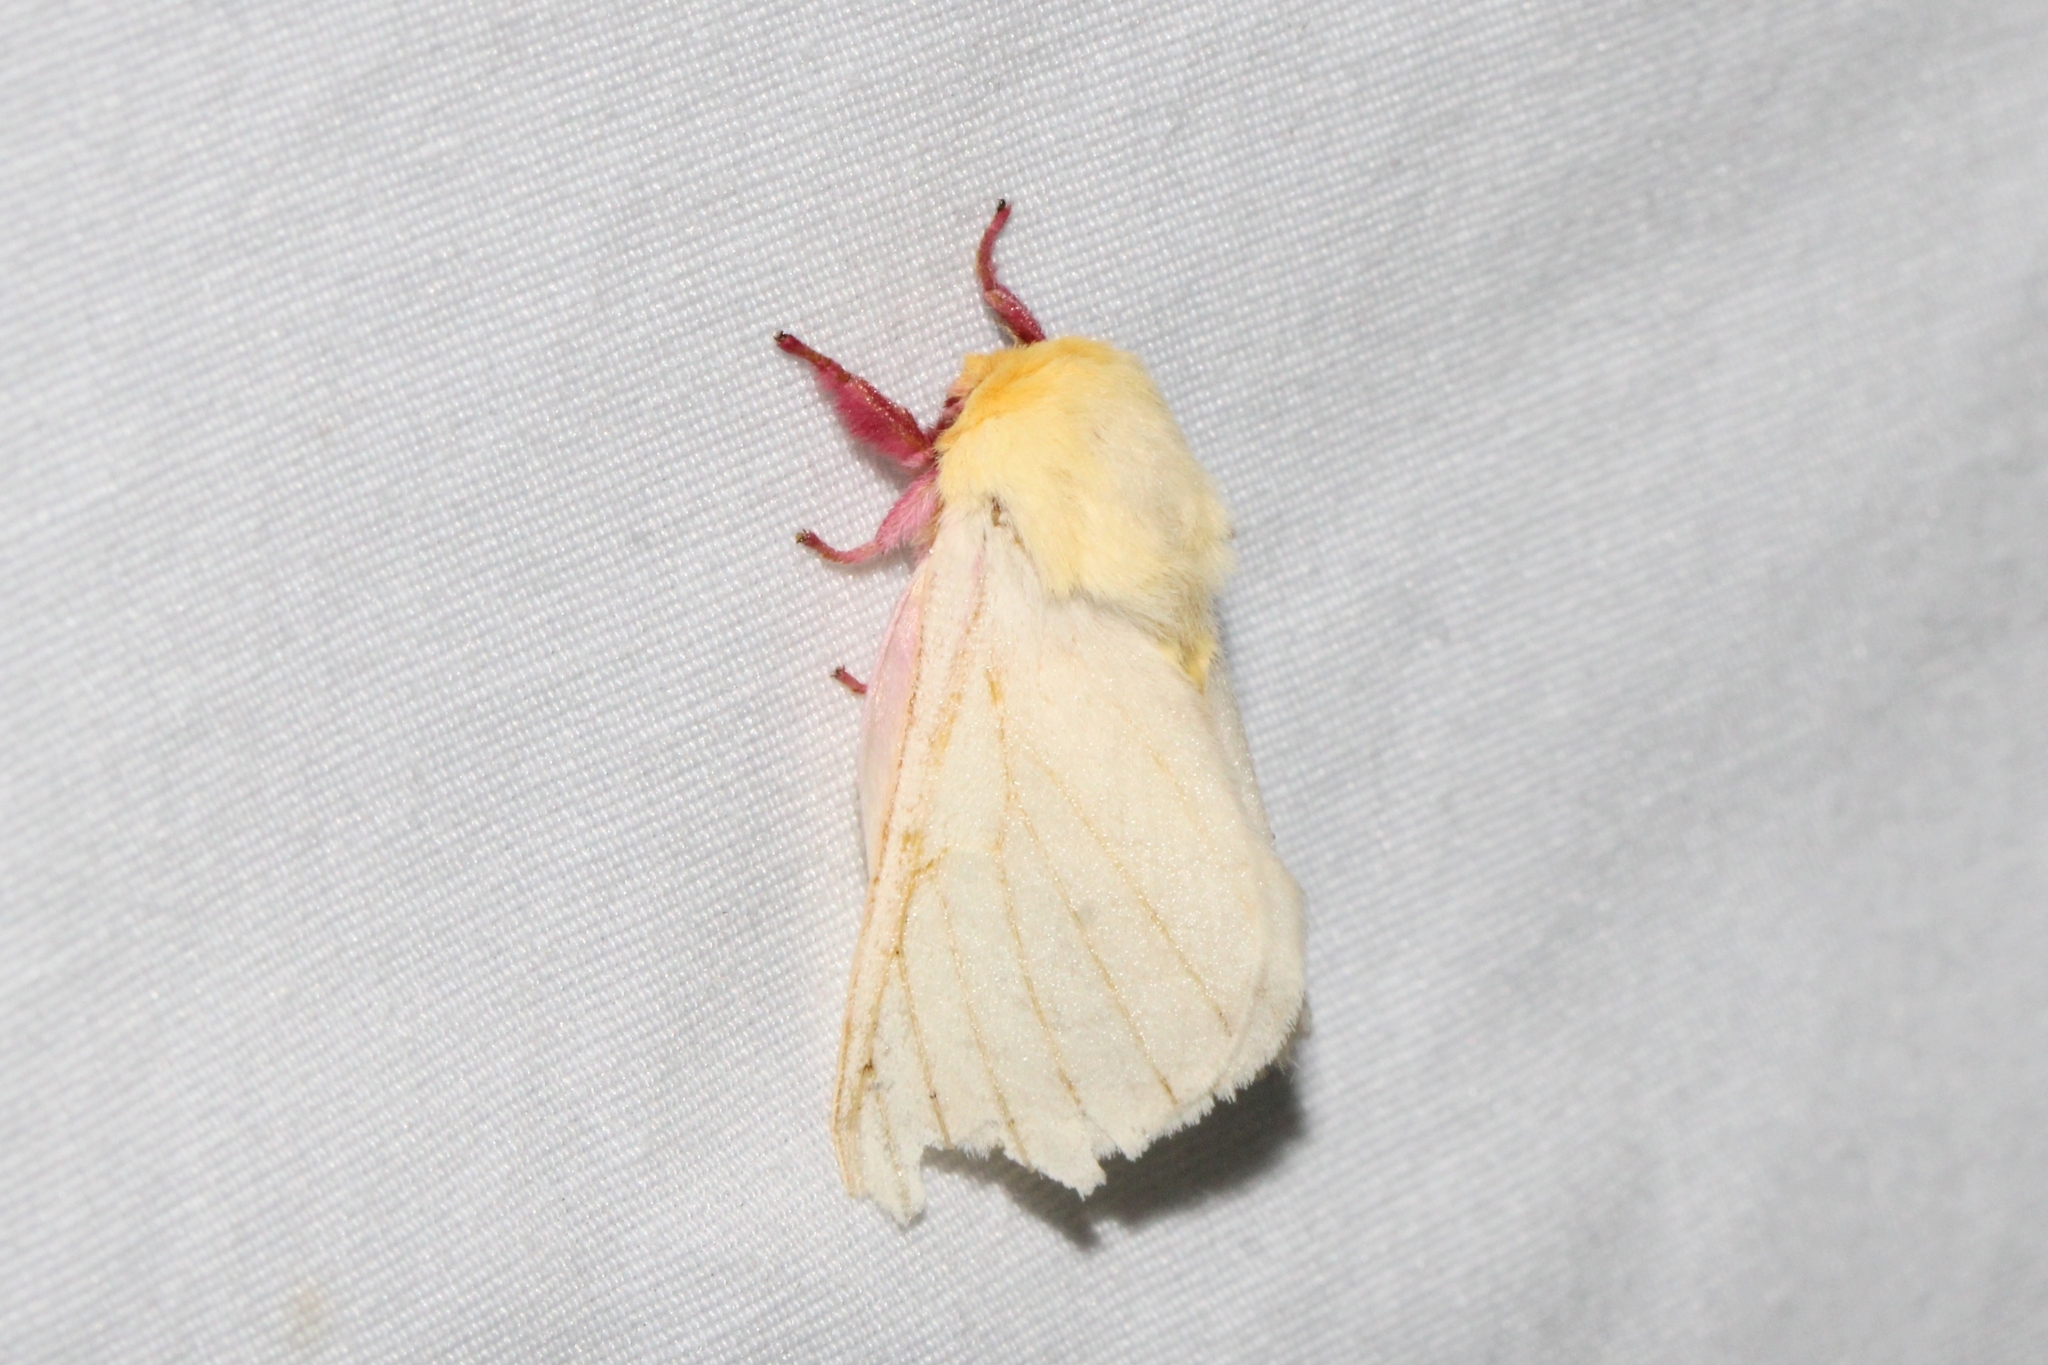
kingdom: Animalia
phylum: Arthropoda
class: Insecta
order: Lepidoptera
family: Saturniidae
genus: Dryocampa
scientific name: Dryocampa rubicunda
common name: Rosy maple moth
